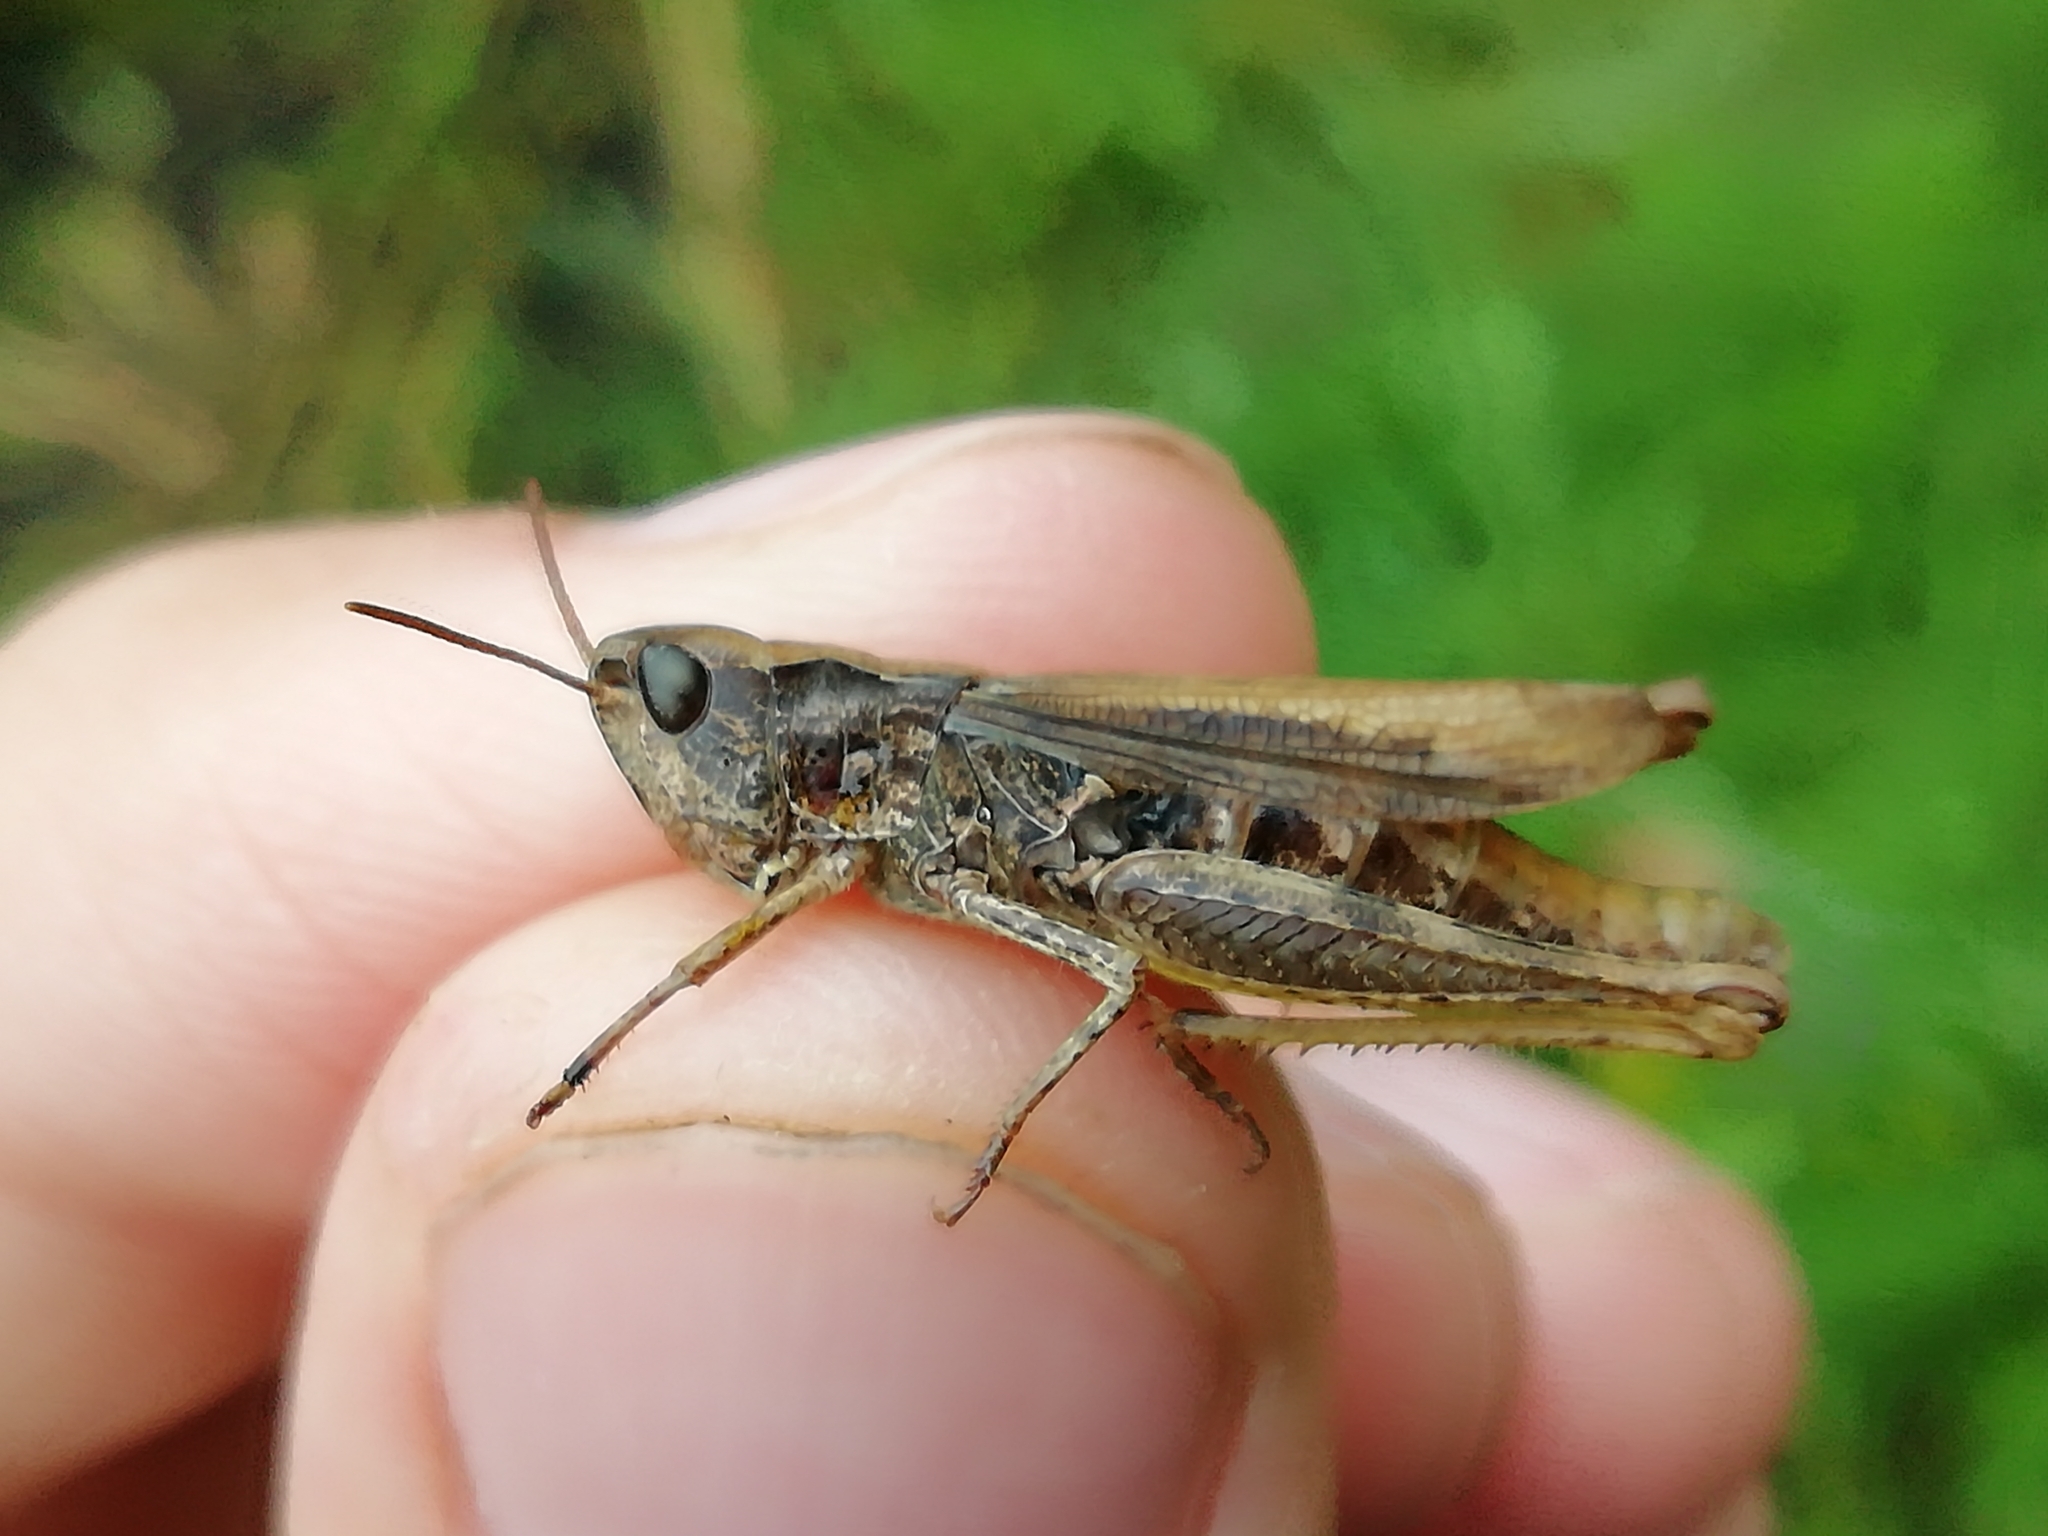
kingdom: Animalia
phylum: Arthropoda
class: Insecta
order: Orthoptera
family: Acrididae
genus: Chorthippus
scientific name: Chorthippus apricarius
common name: Upland field grasshopper
